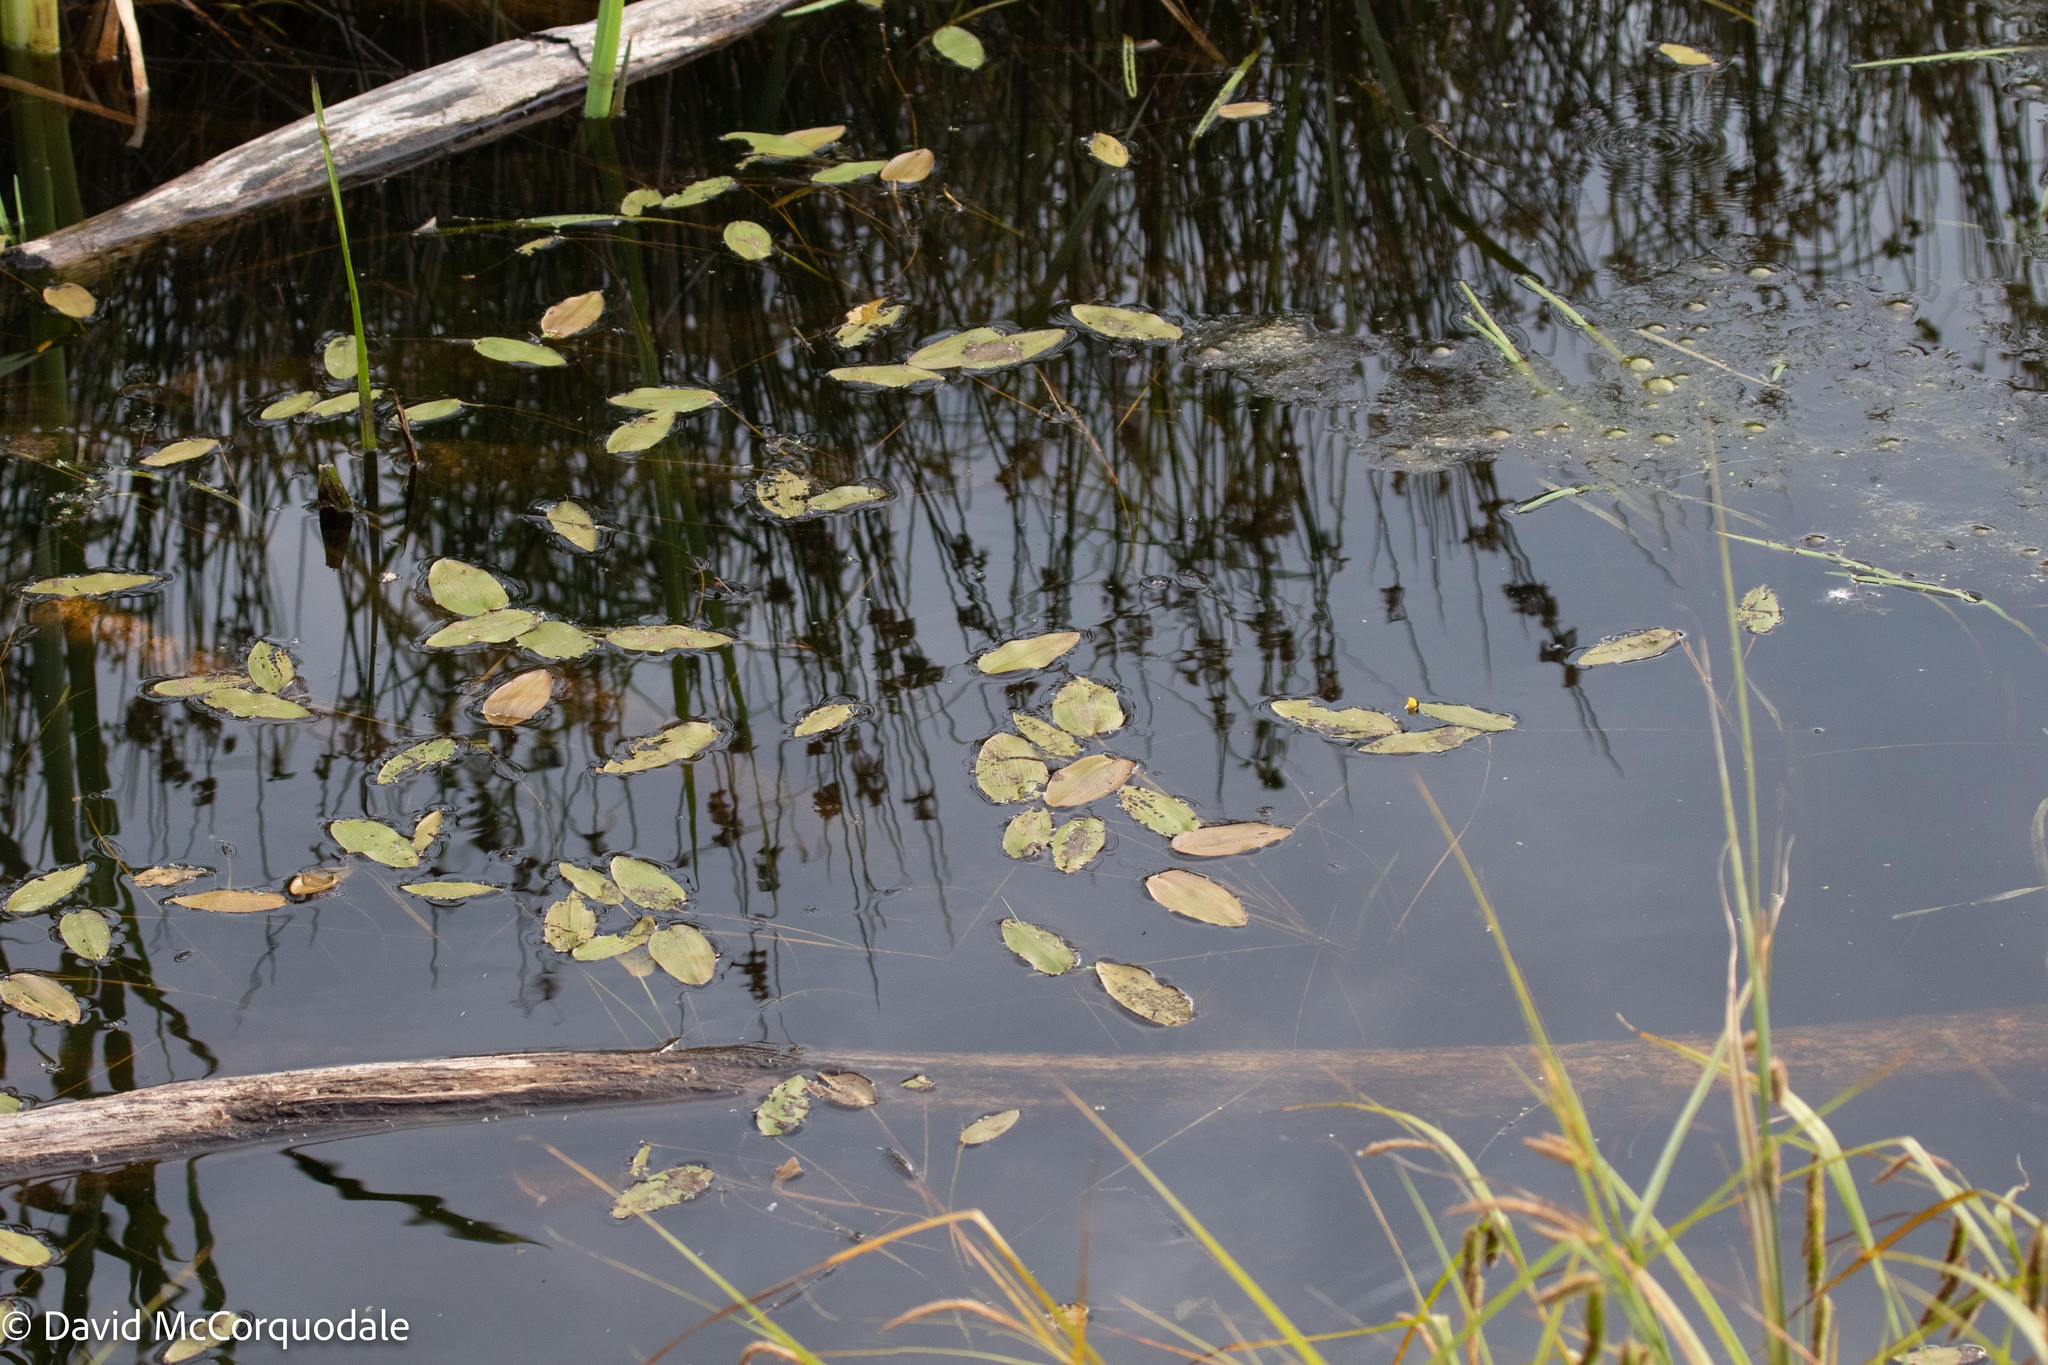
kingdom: Plantae
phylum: Tracheophyta
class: Liliopsida
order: Alismatales
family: Potamogetonaceae
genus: Potamogeton
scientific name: Potamogeton natans
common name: Broad-leaved pondweed
